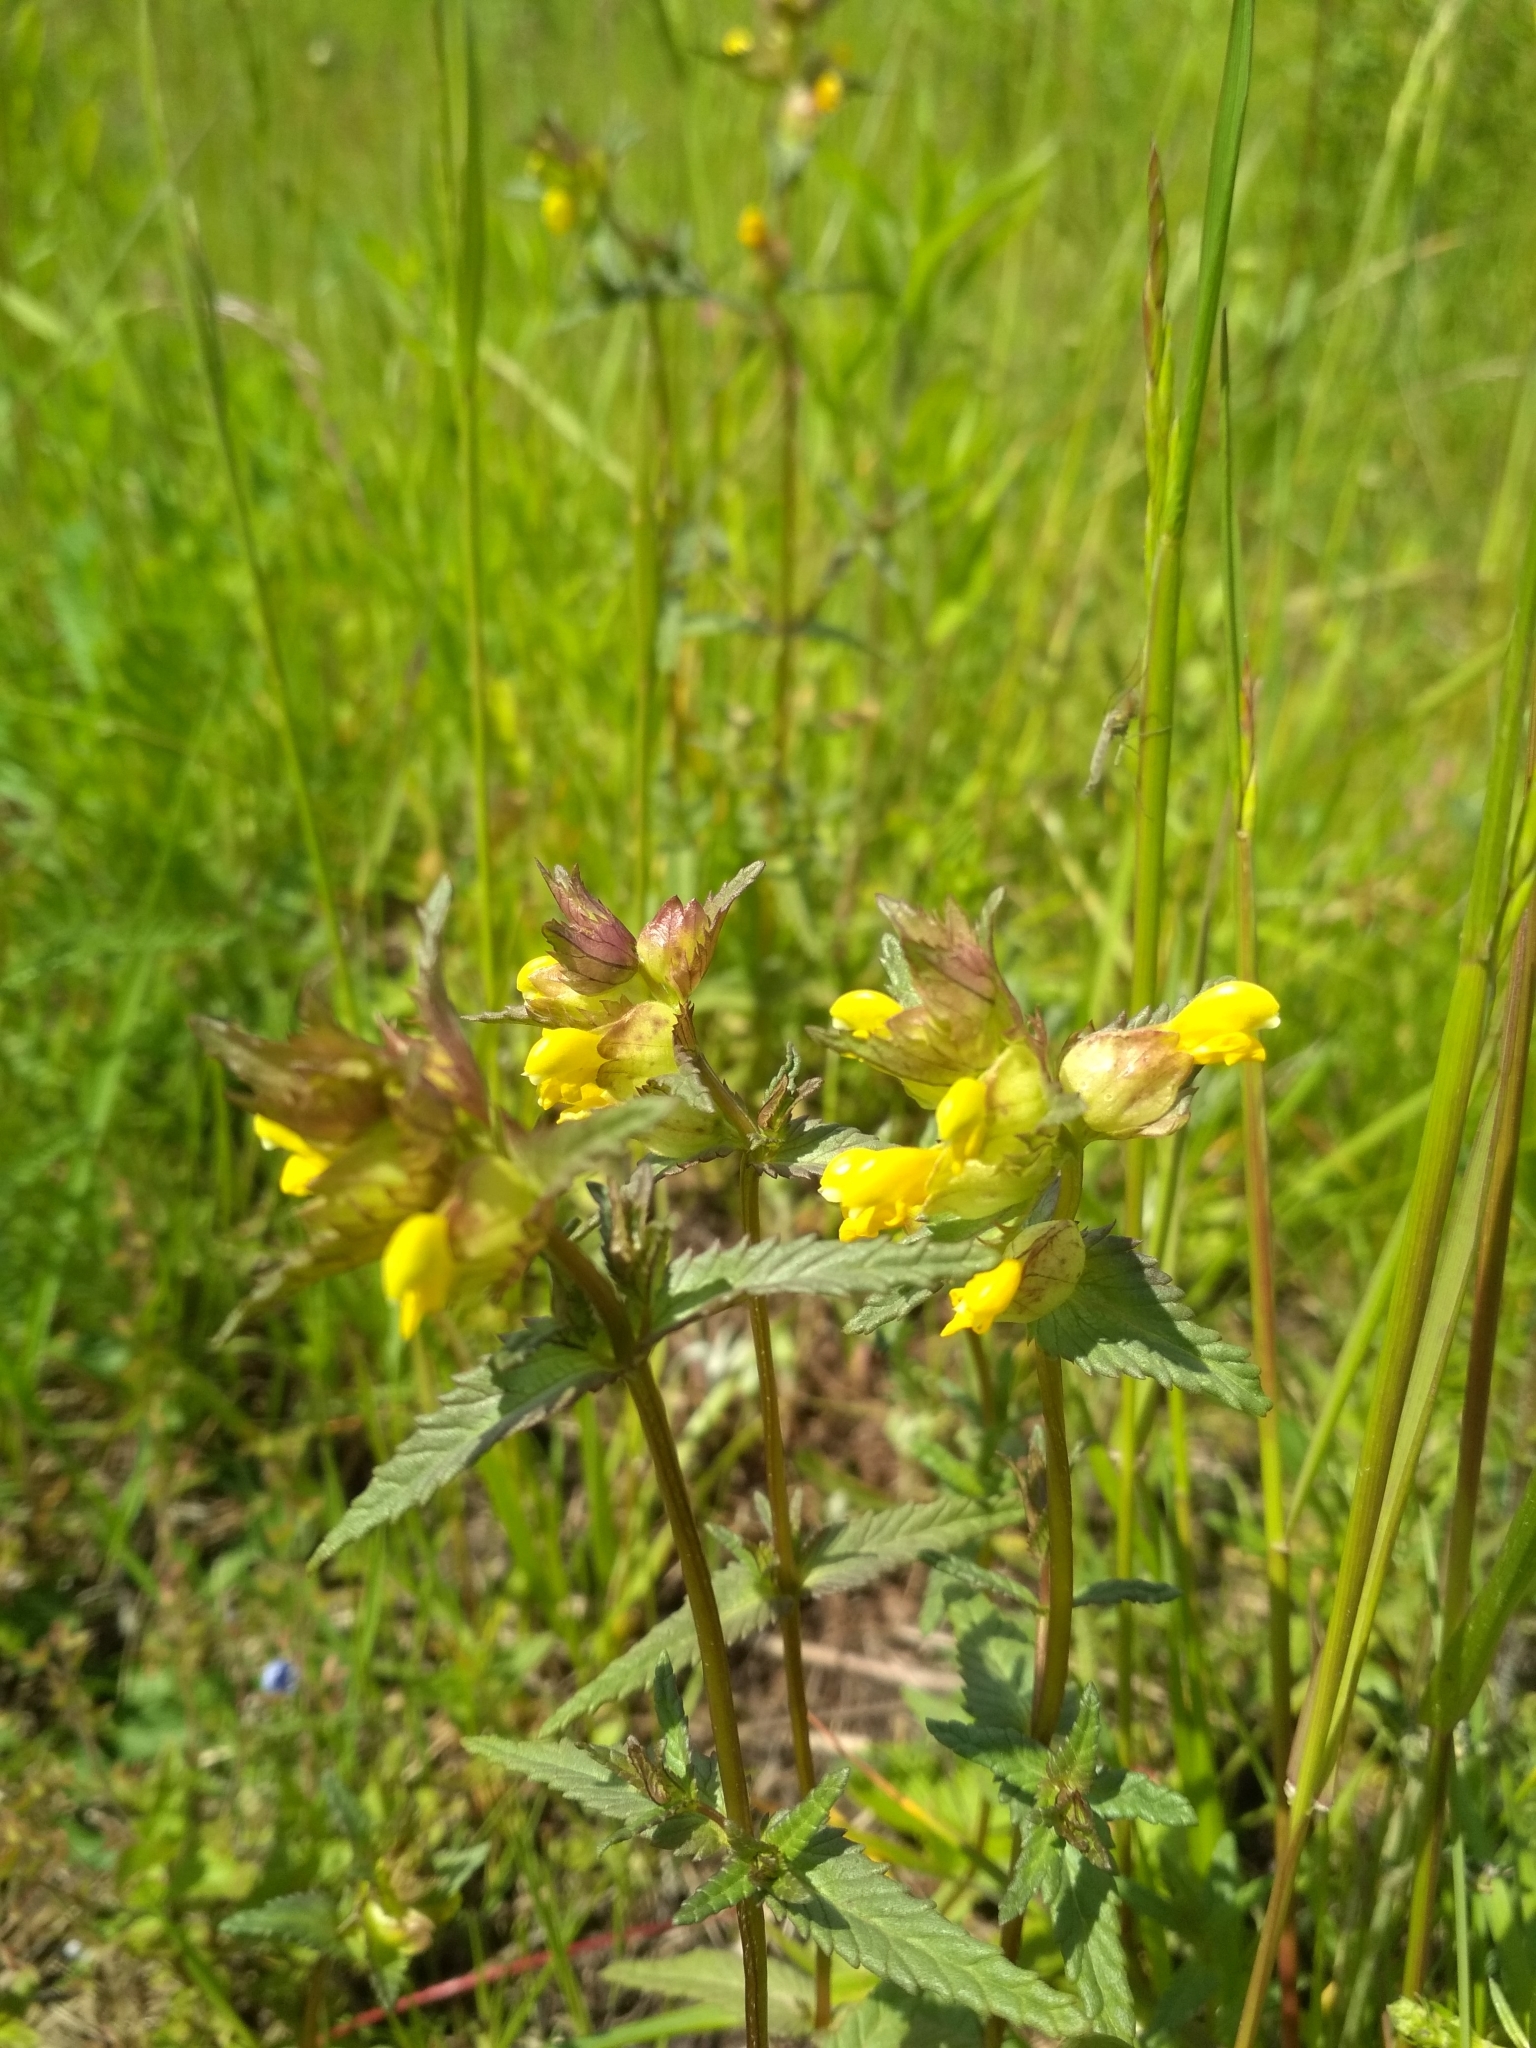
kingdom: Plantae
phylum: Tracheophyta
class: Magnoliopsida
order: Lamiales
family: Orobanchaceae
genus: Rhinanthus
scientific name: Rhinanthus minor
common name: Yellow-rattle
